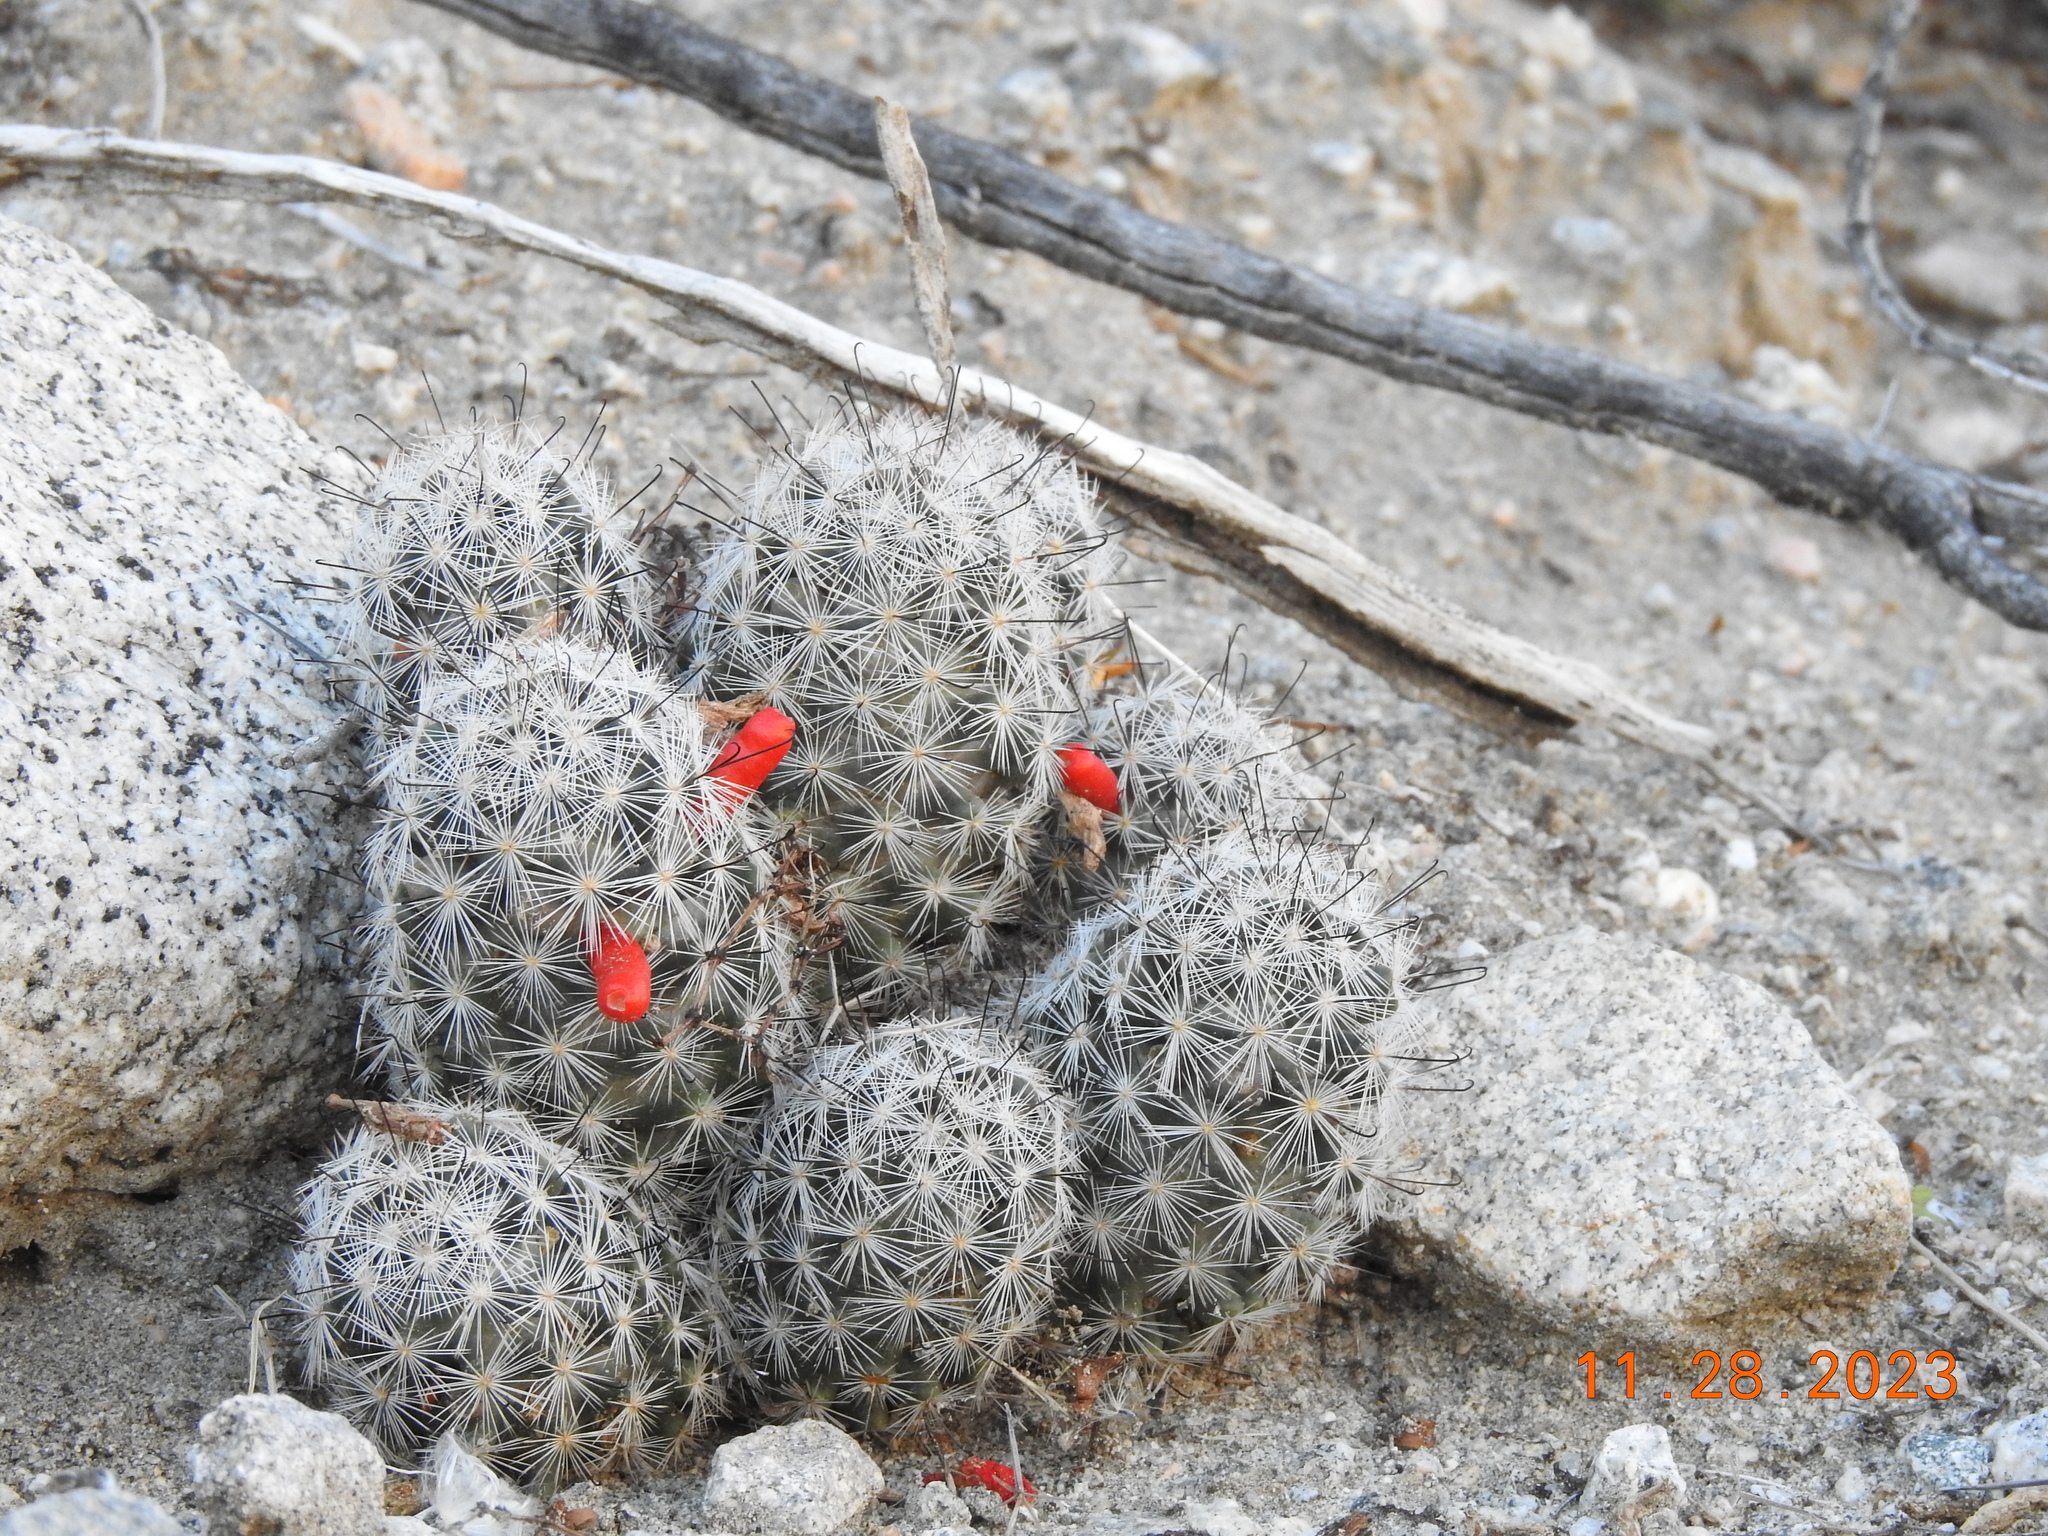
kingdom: Plantae
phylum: Tracheophyta
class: Magnoliopsida
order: Caryophyllales
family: Cactaceae
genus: Cochemiea
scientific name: Cochemiea tetrancistra
